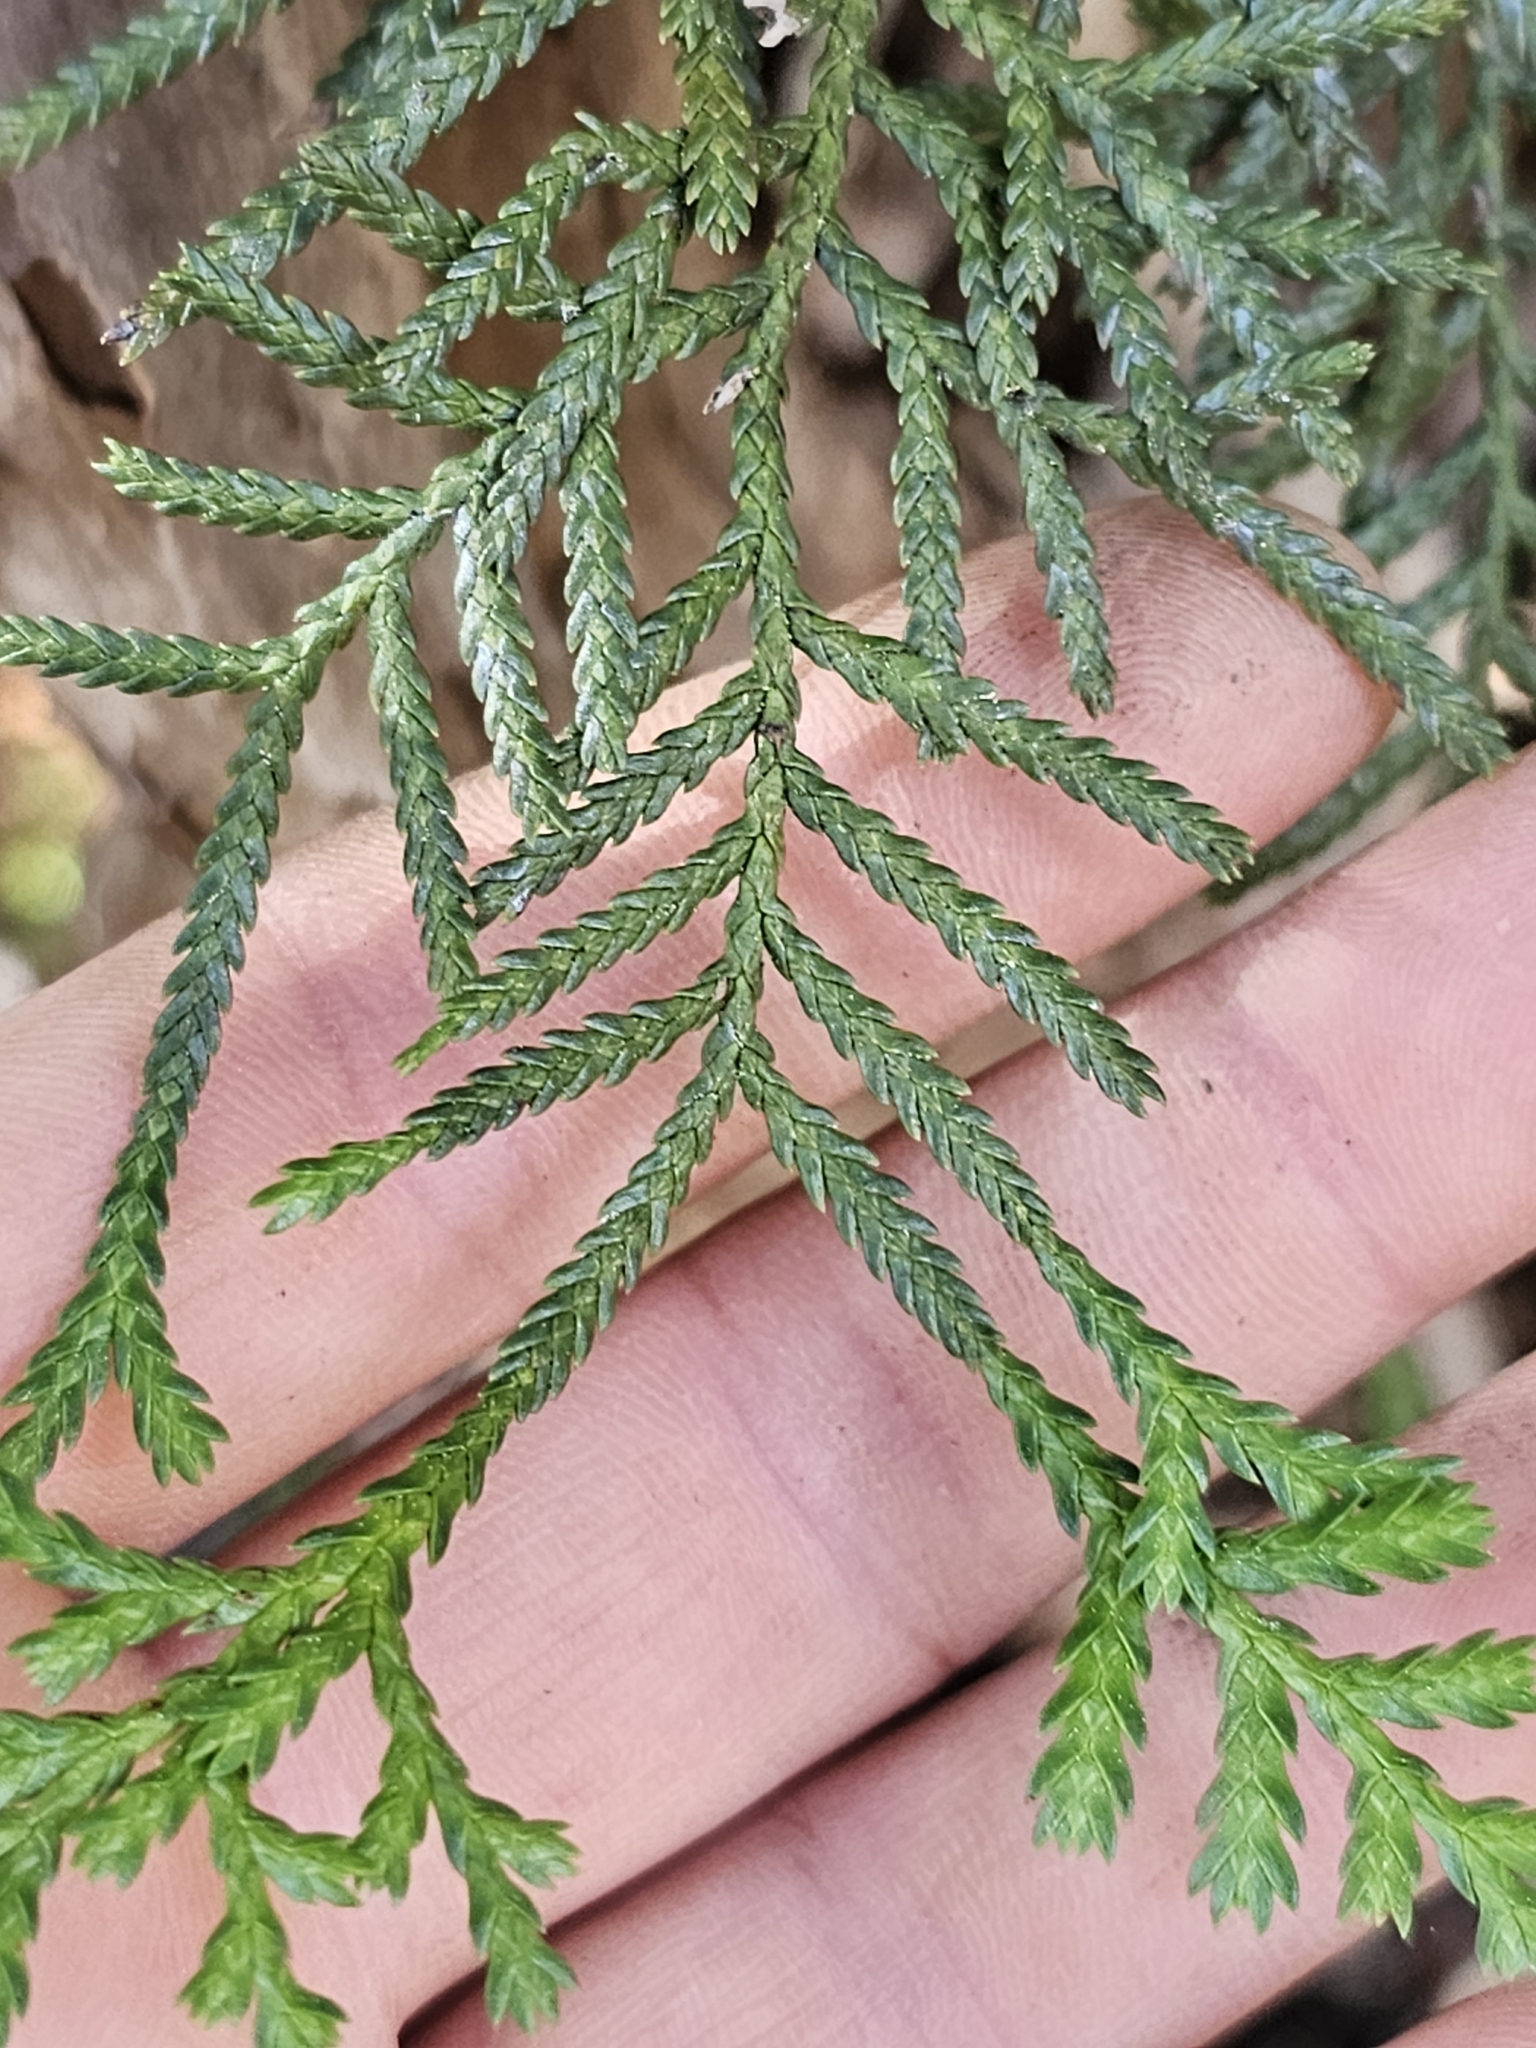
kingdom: Plantae
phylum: Tracheophyta
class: Pinopsida
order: Pinales
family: Cupressaceae
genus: Libocedrus
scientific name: Libocedrus bidwillii
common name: Cedar
